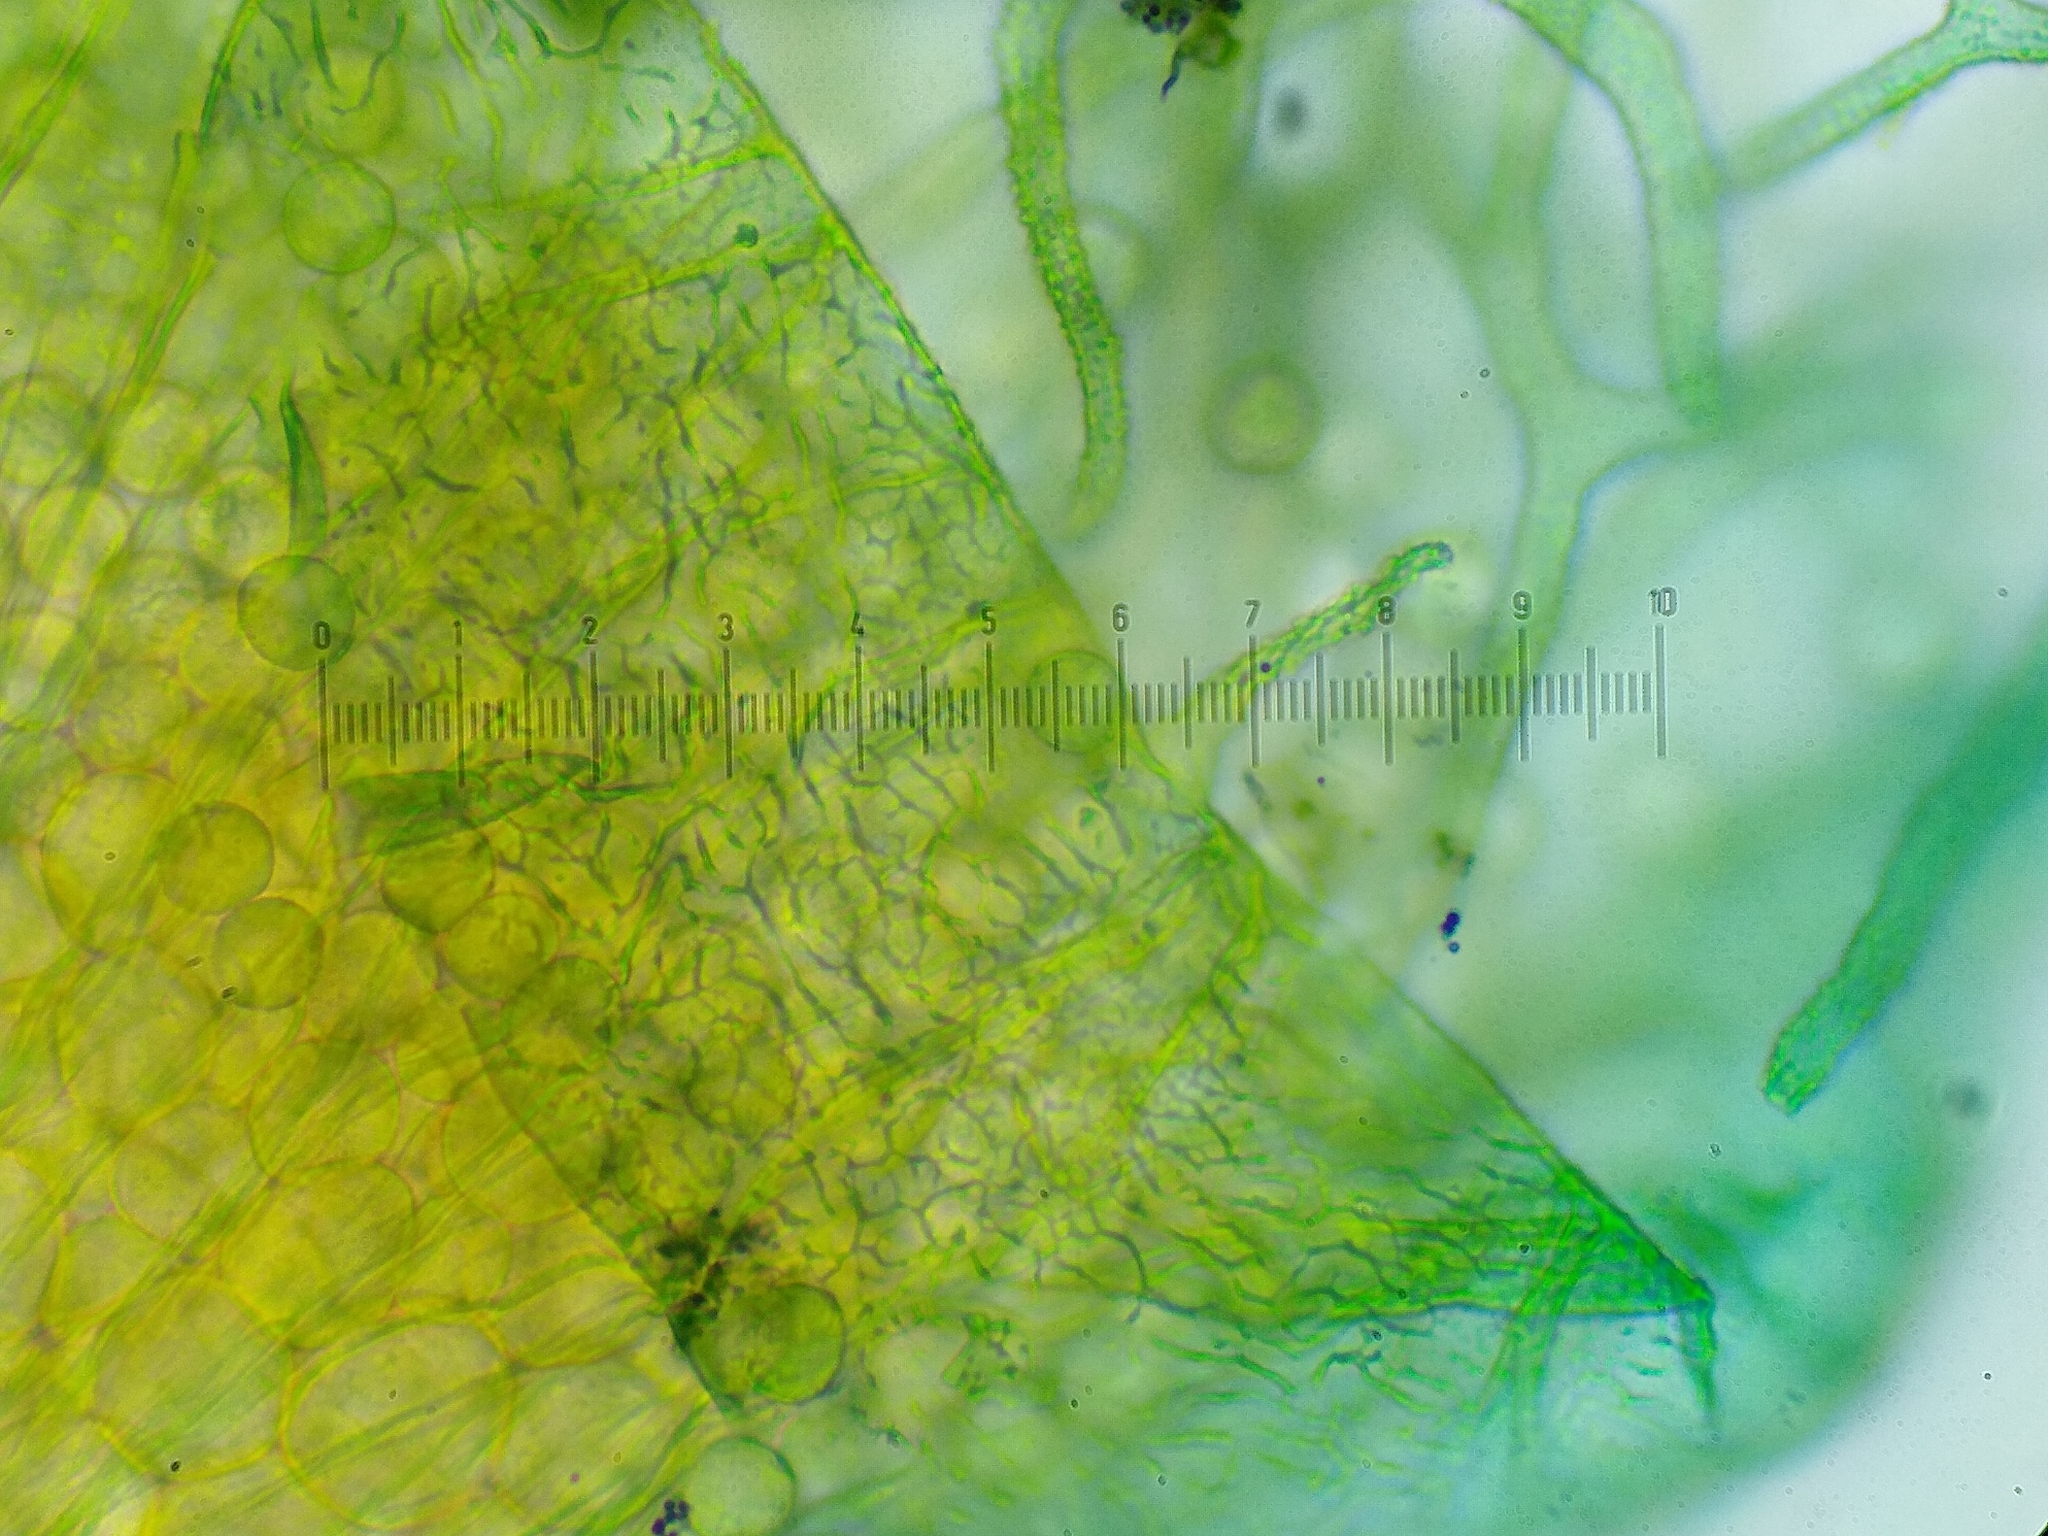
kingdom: Protozoa
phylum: Mycetozoa
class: Myxomycetes
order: Trichiales
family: Arcyriaceae
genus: Arcyria
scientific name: Arcyria pomiformis
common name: Golden apple slime mold
